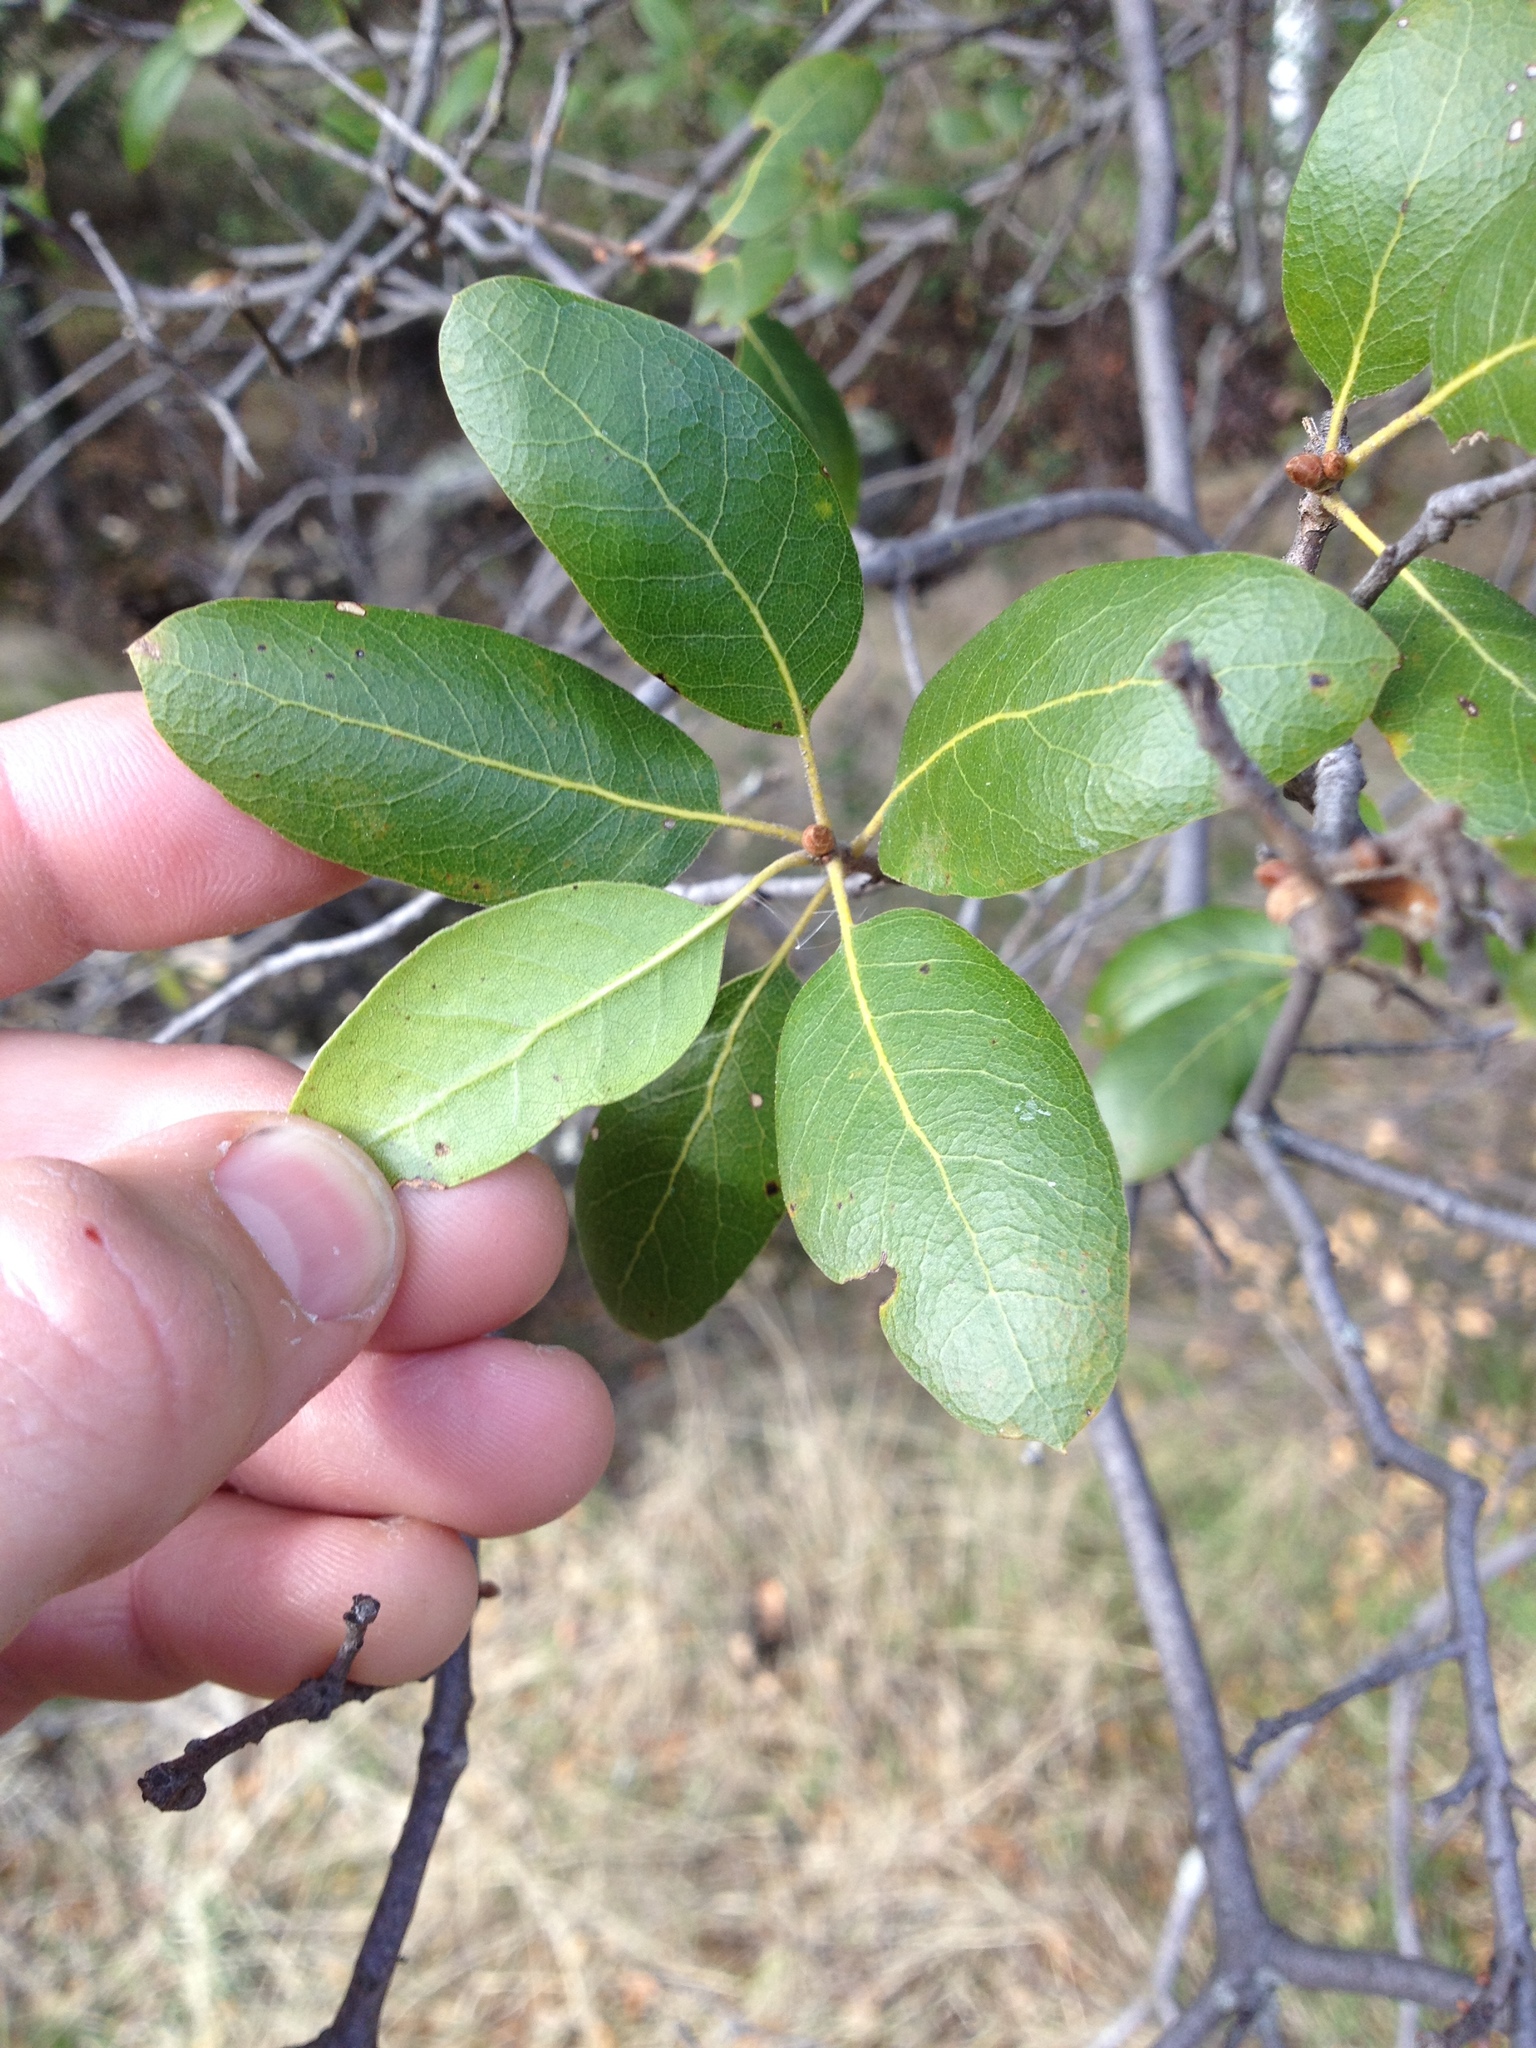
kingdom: Plantae
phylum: Tracheophyta
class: Magnoliopsida
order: Fagales
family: Fagaceae
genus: Quercus
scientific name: Quercus wislizeni
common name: Interior live oak
